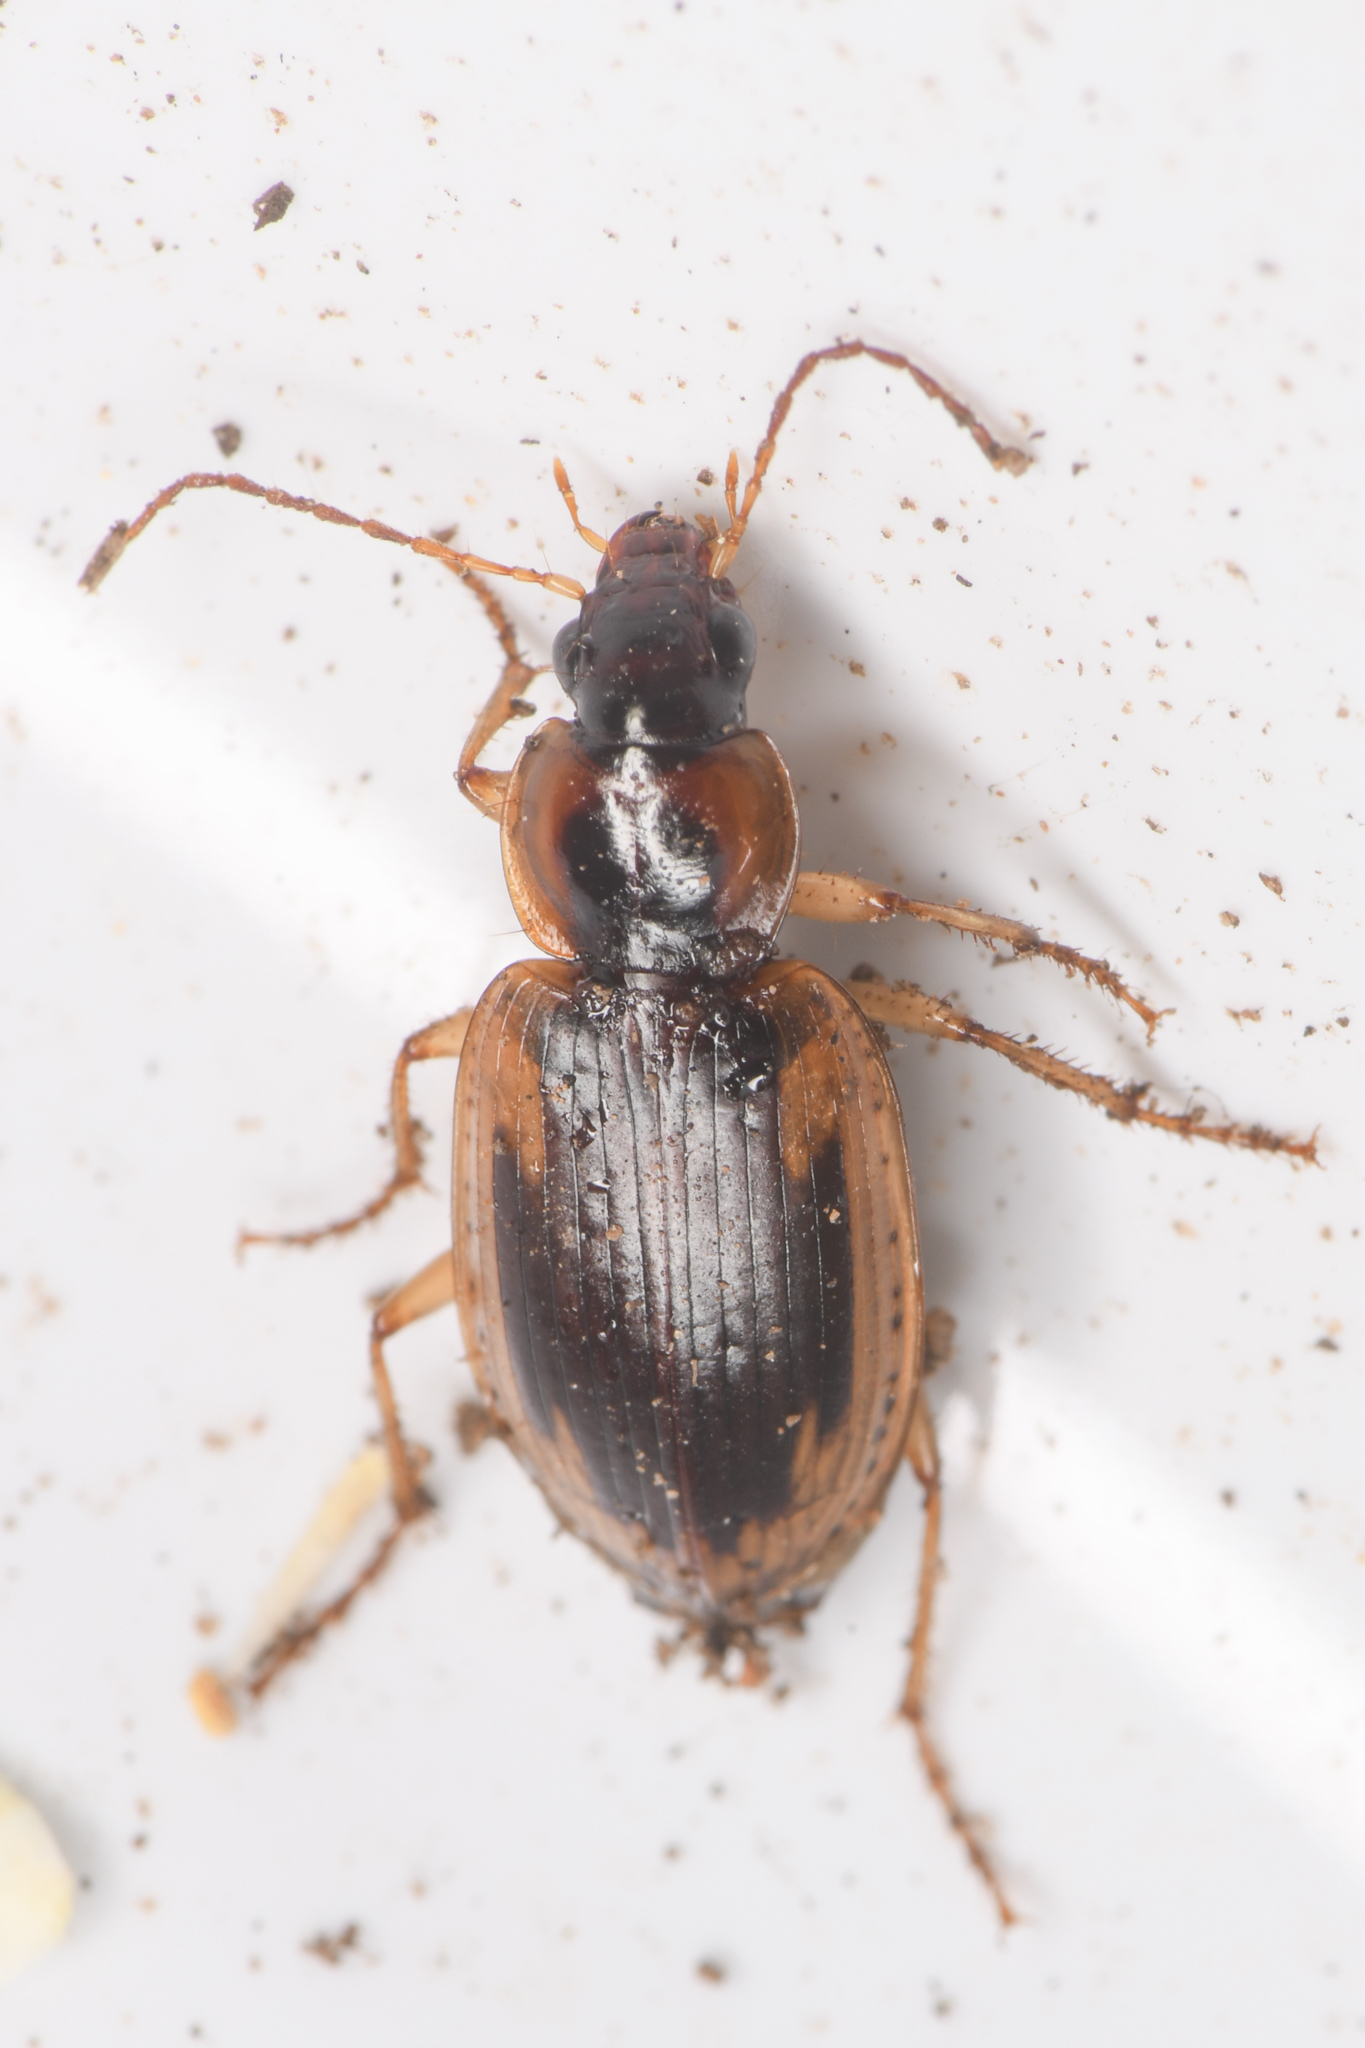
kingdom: Animalia
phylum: Arthropoda
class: Insecta
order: Coleoptera
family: Carabidae
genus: Tanystoma
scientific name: Tanystoma maculicolle
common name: Tule beetle
